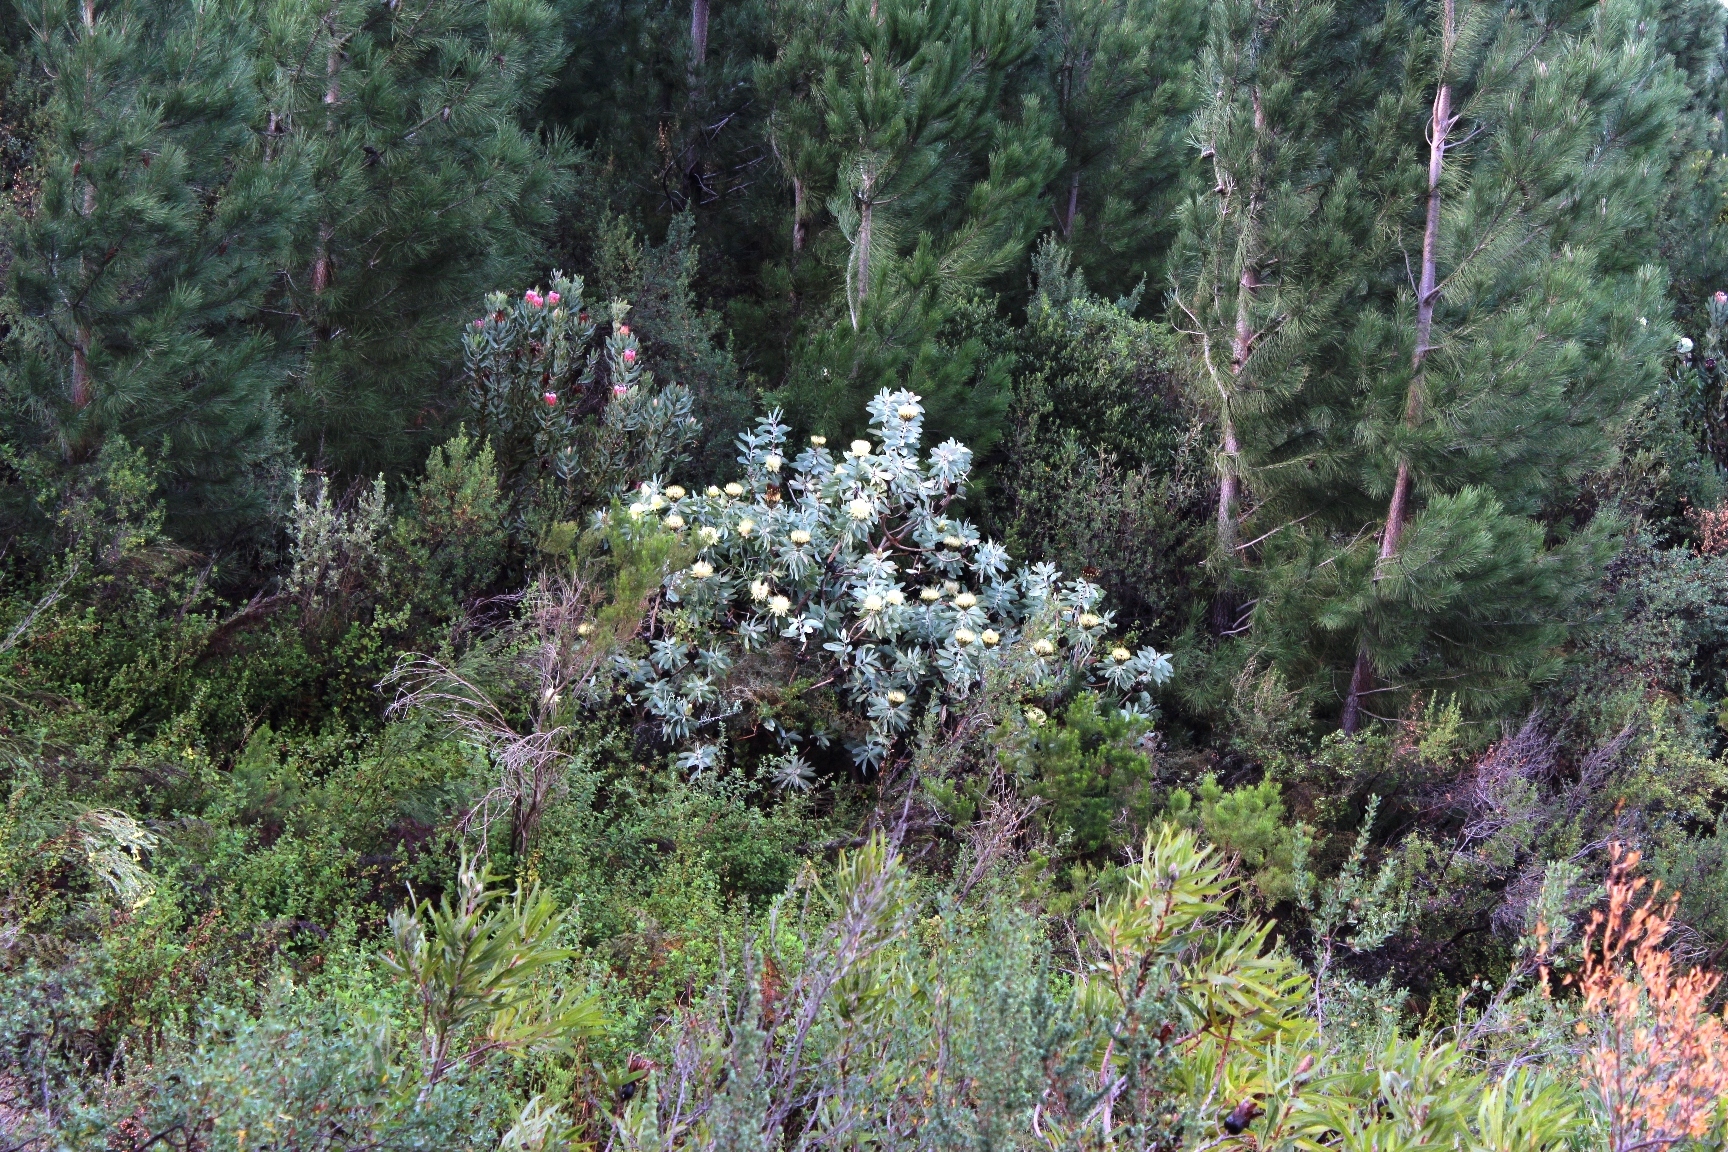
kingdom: Plantae
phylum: Tracheophyta
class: Magnoliopsida
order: Proteales
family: Proteaceae
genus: Protea
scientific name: Protea nitida
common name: Tree protea
